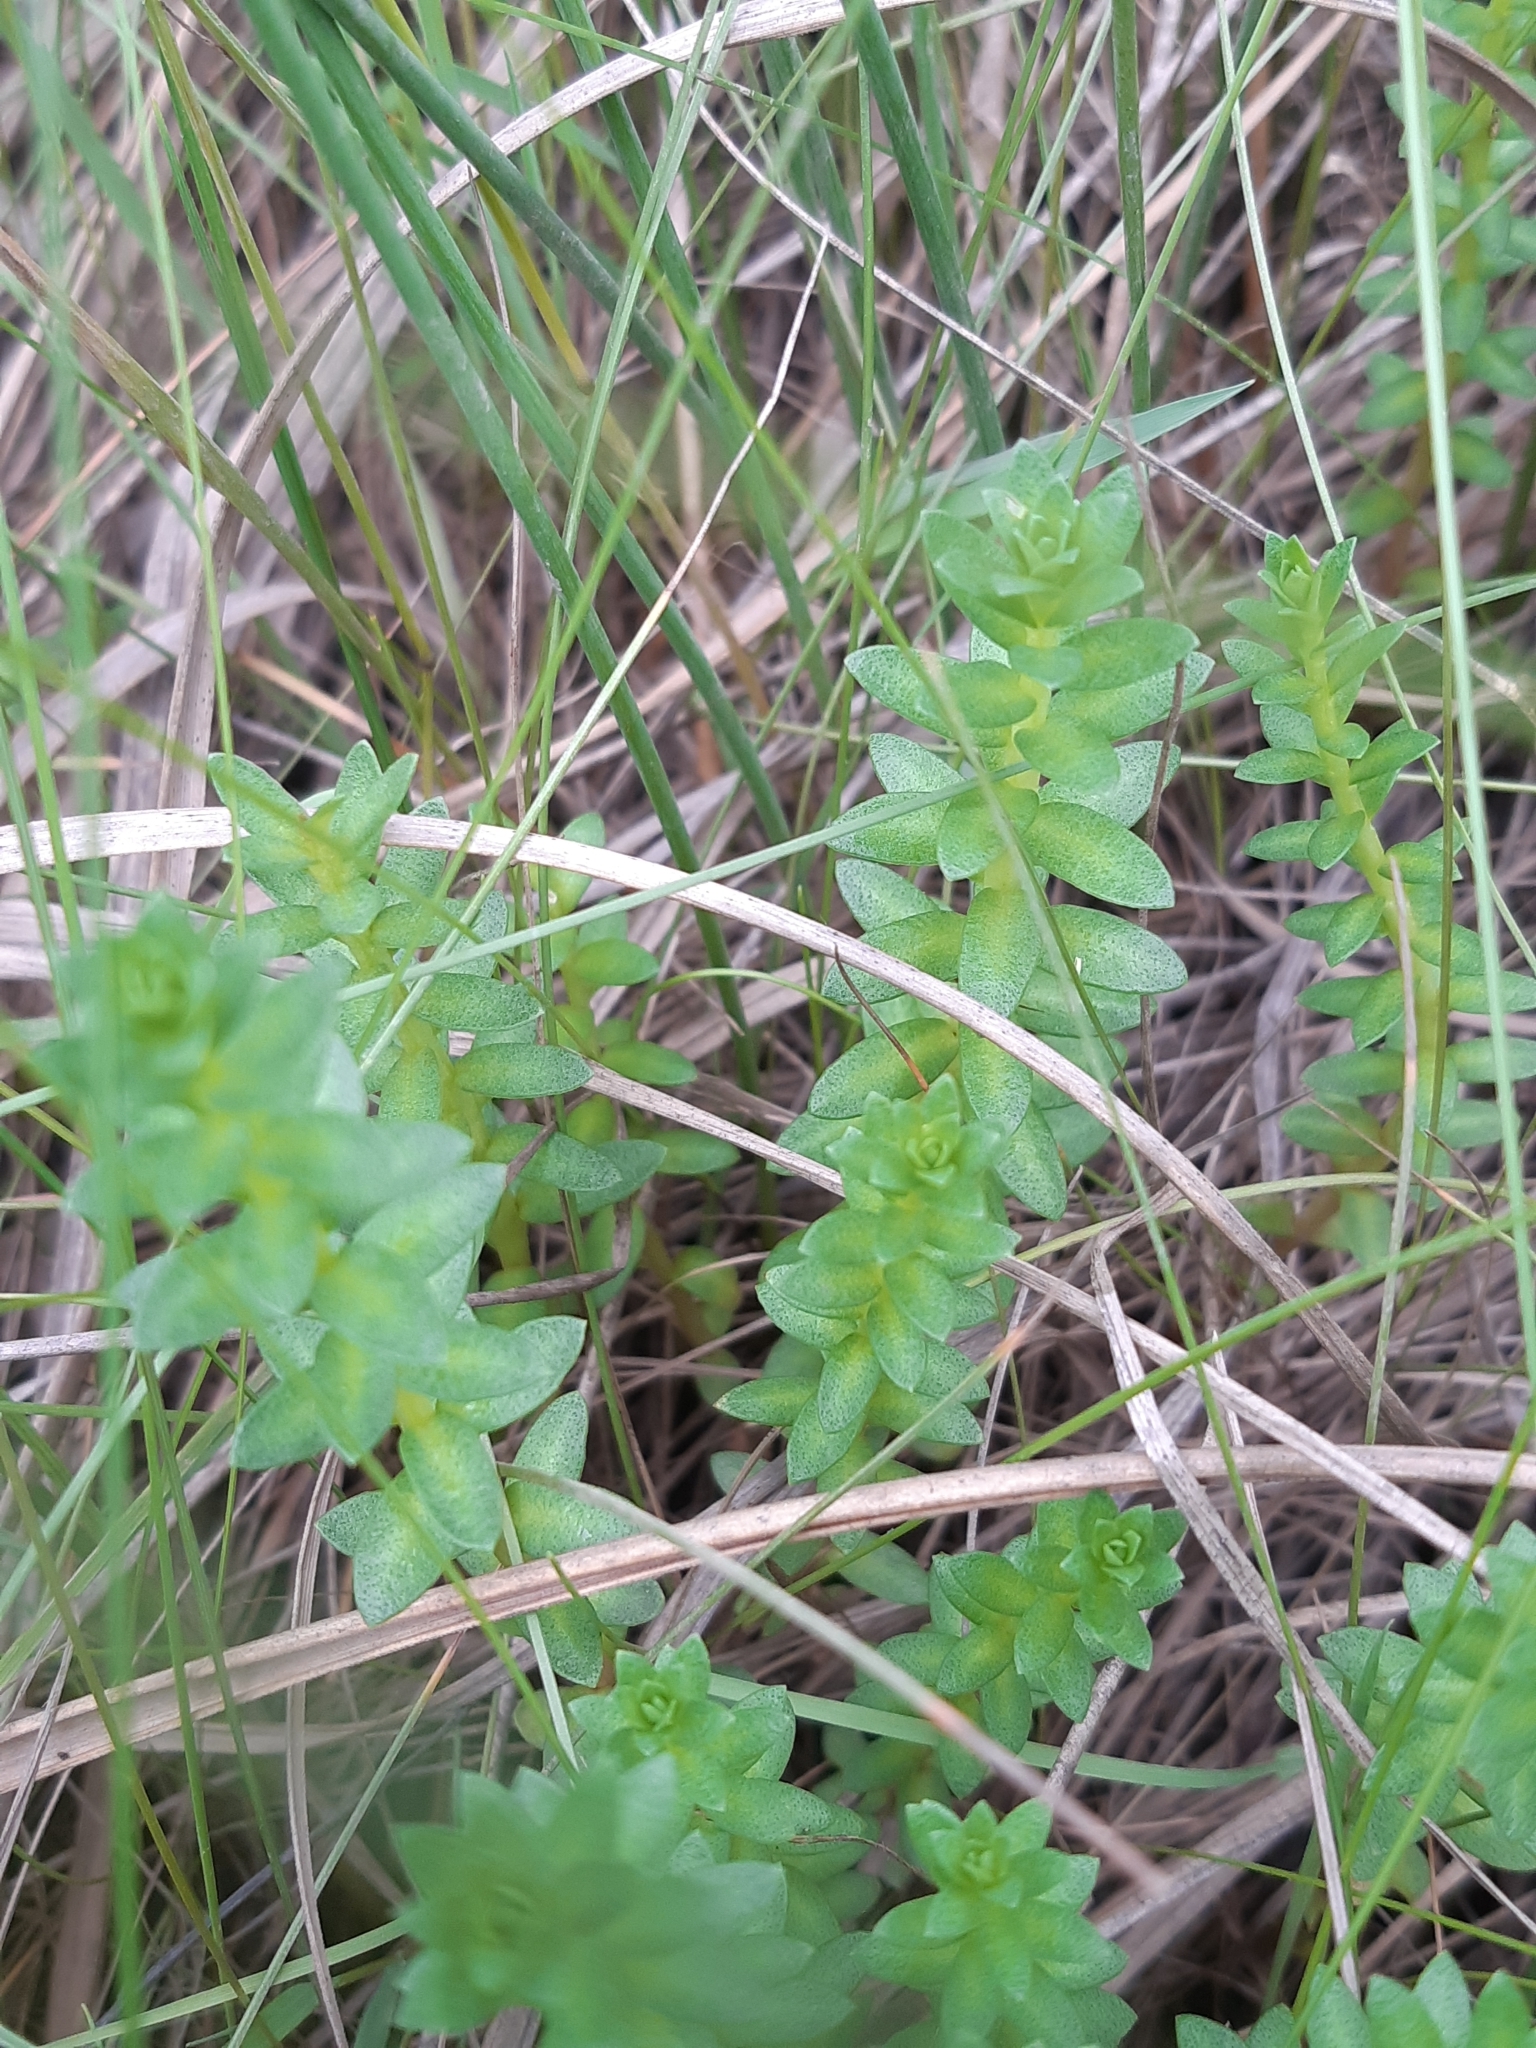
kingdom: Plantae
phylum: Tracheophyta
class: Magnoliopsida
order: Ericales
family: Primulaceae
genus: Lysimachia
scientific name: Lysimachia maritima
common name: Sea milkwort
